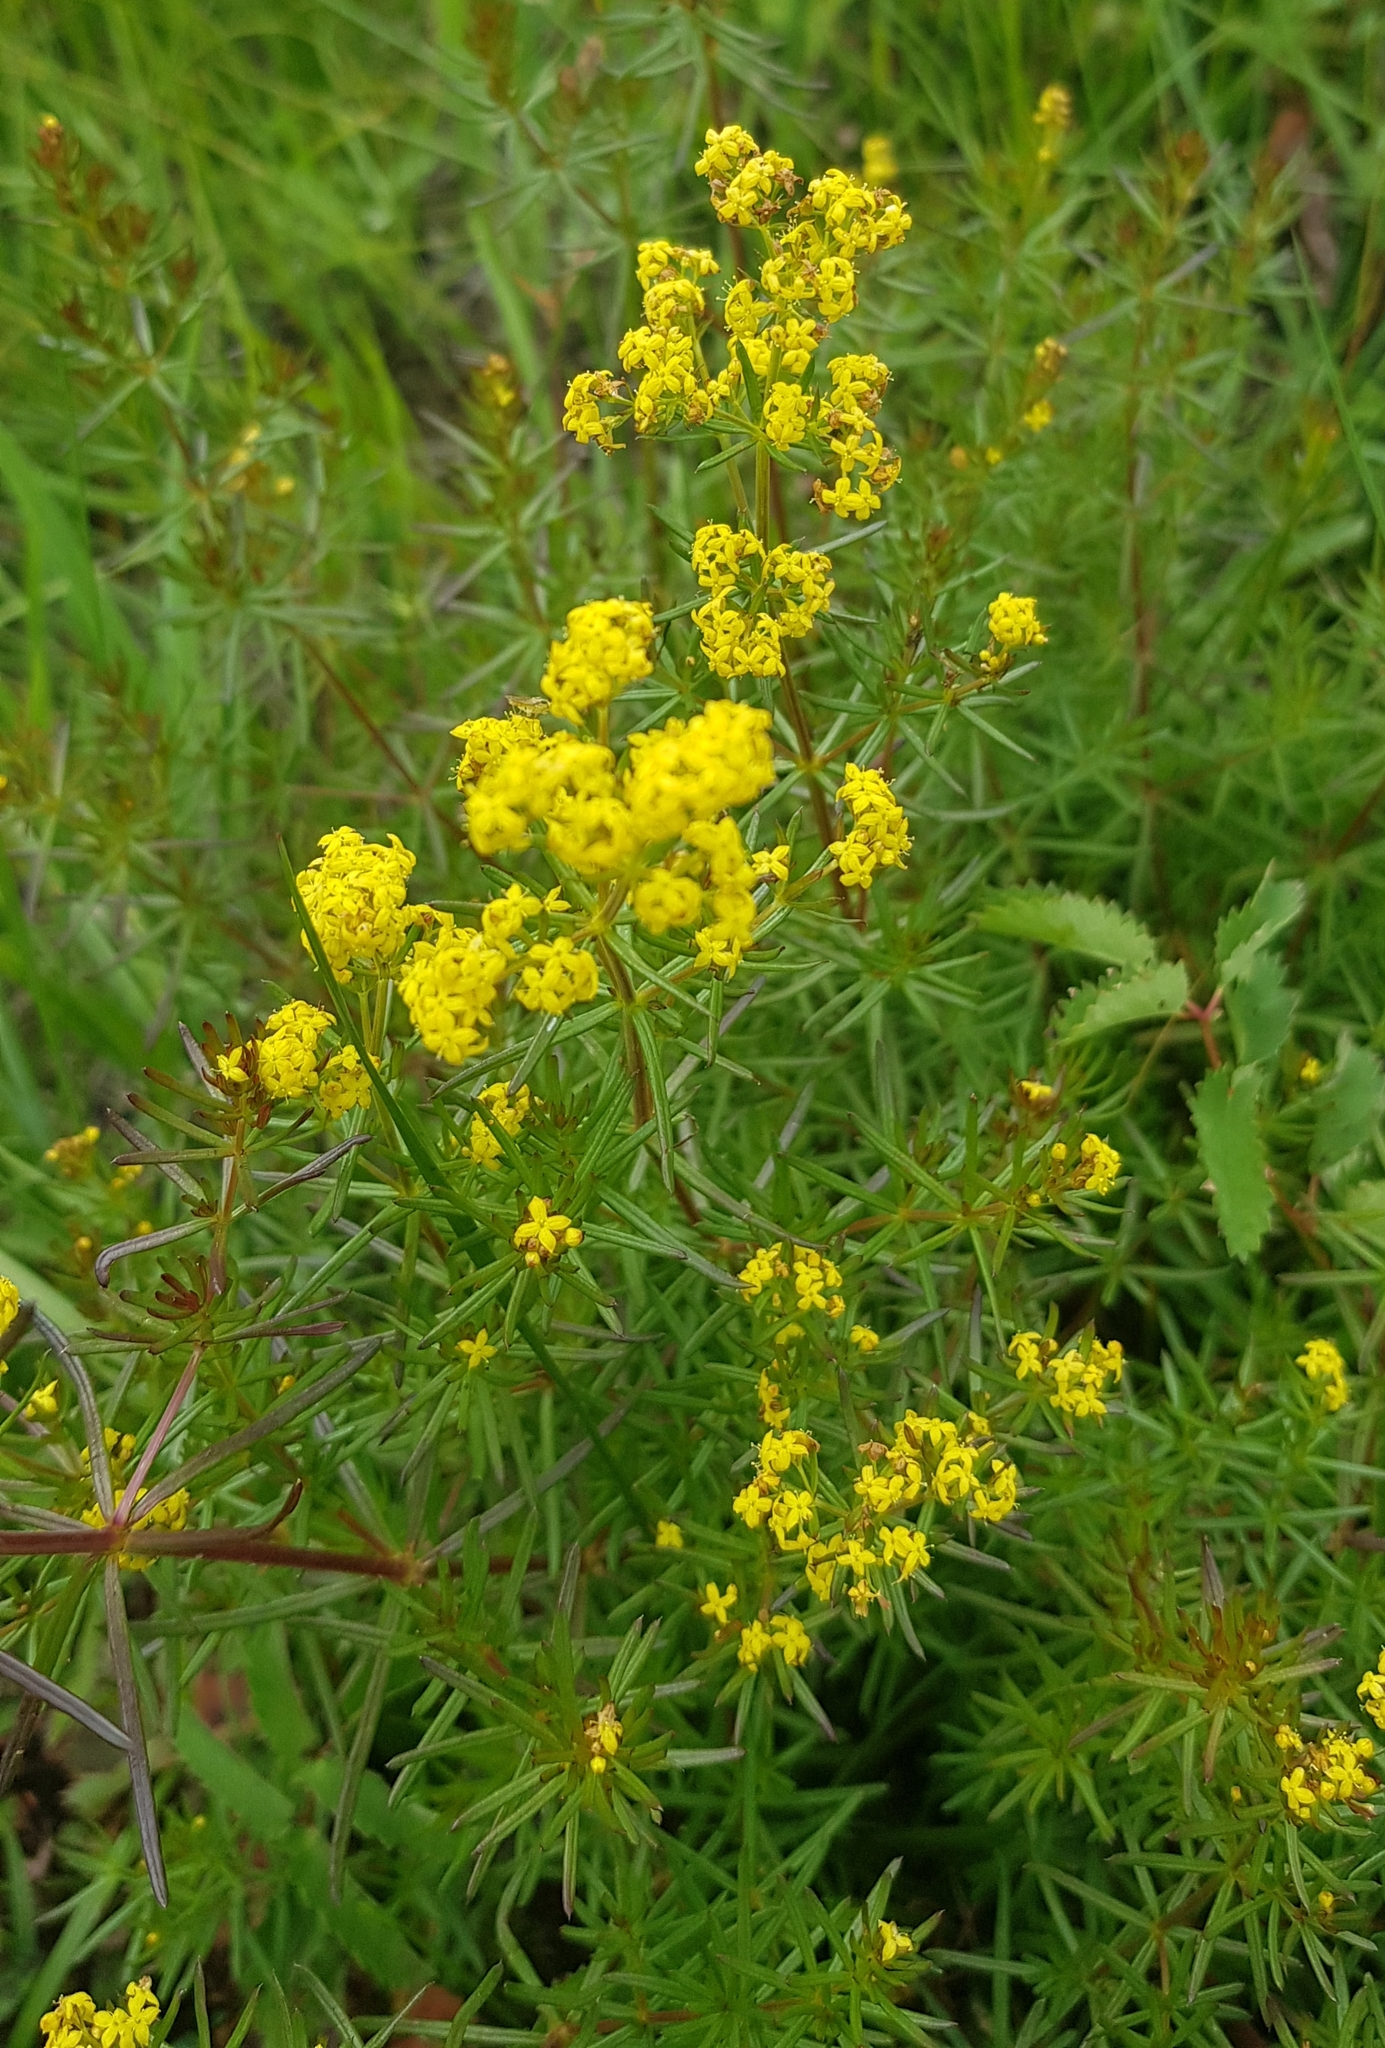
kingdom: Plantae
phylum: Tracheophyta
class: Magnoliopsida
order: Gentianales
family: Rubiaceae
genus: Galium
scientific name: Galium verum
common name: Lady's bedstraw
